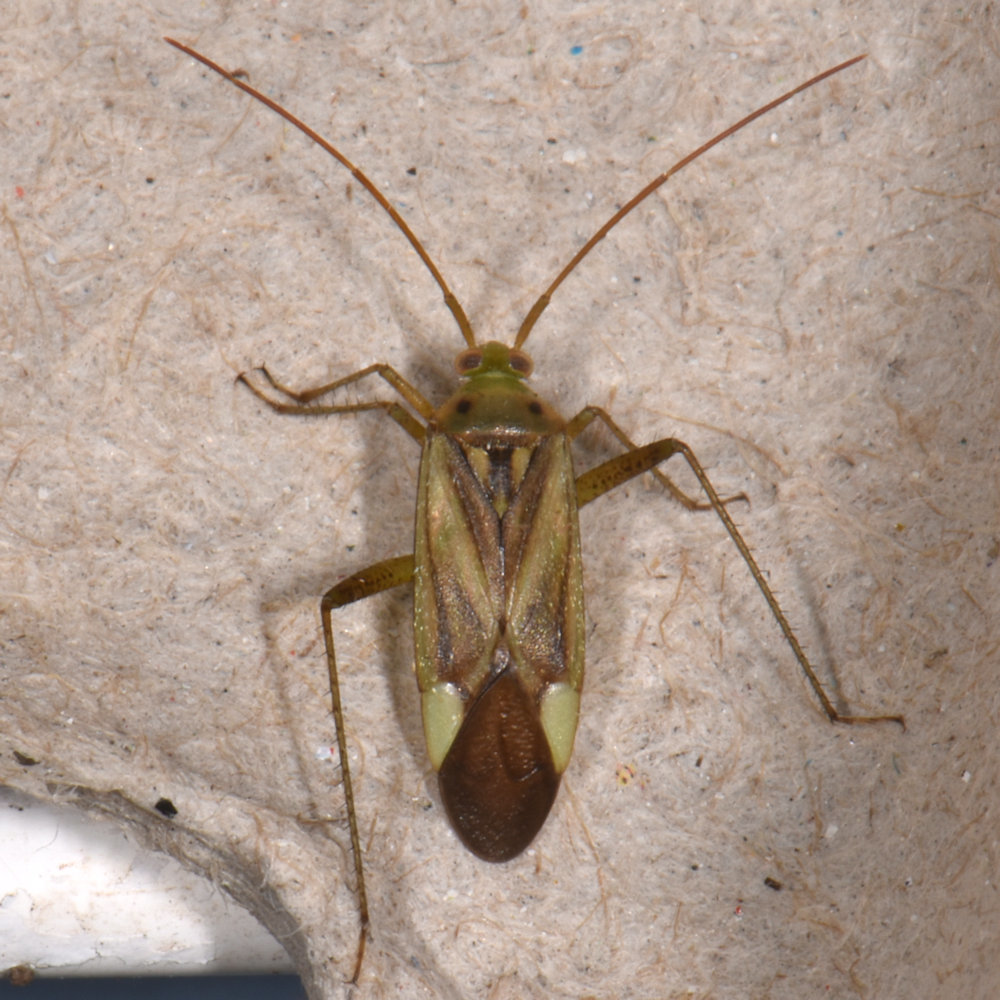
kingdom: Animalia
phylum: Arthropoda
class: Insecta
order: Hemiptera
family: Miridae
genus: Adelphocoris
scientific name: Adelphocoris lineolatus
